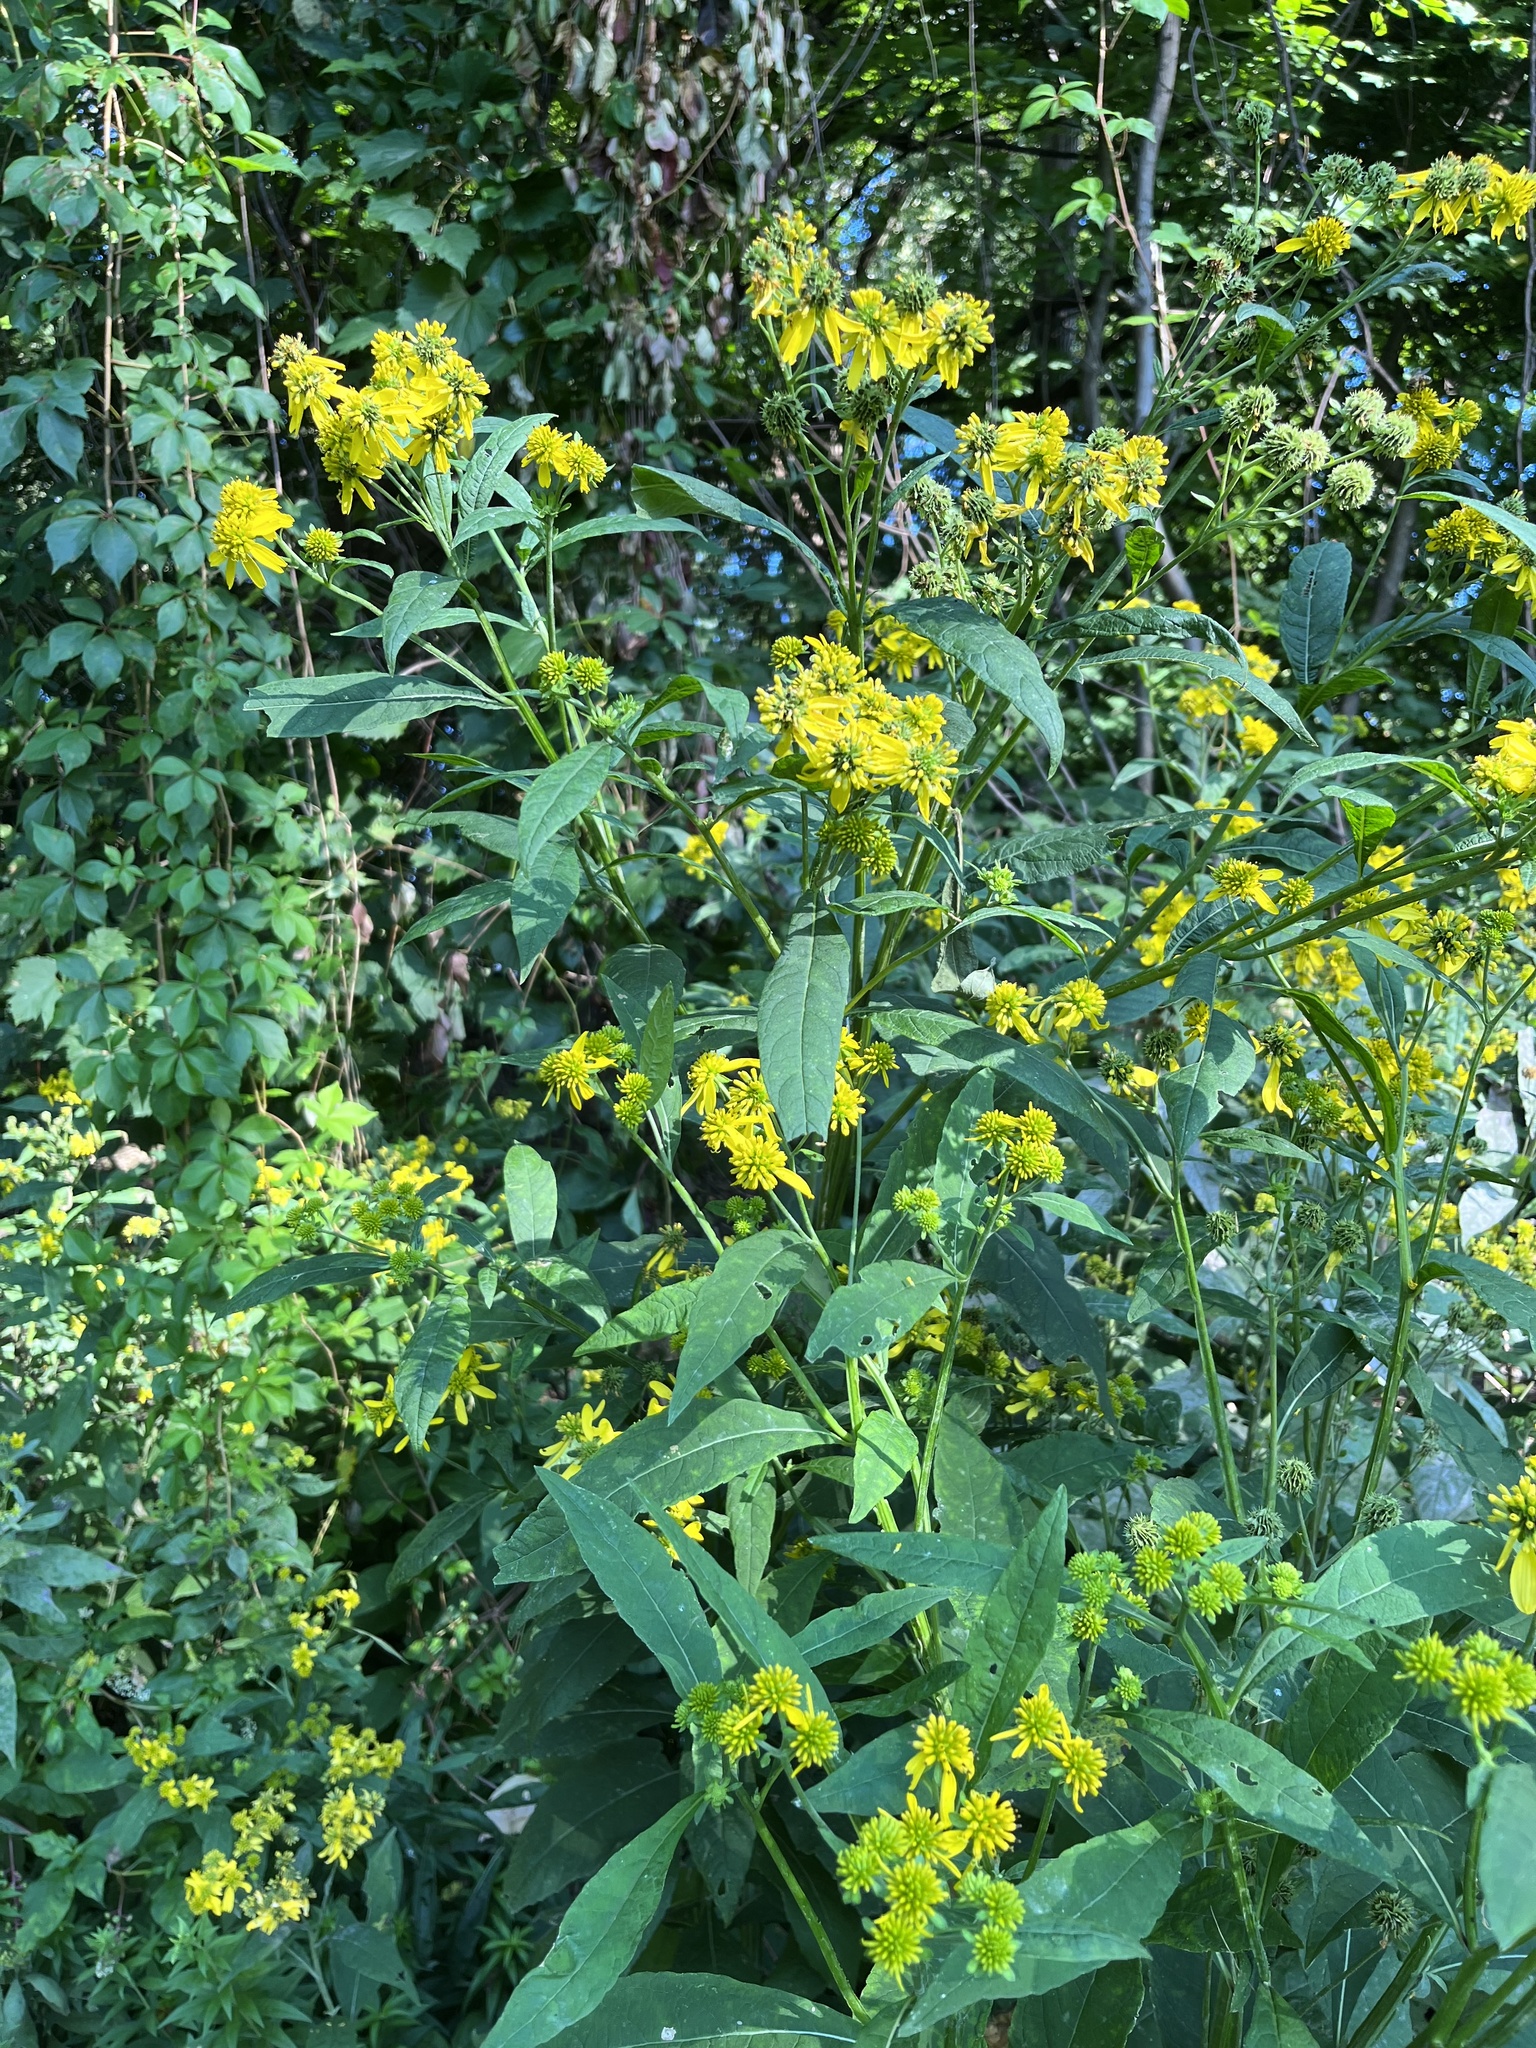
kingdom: Plantae
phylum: Tracheophyta
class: Magnoliopsida
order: Asterales
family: Asteraceae
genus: Verbesina
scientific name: Verbesina alternifolia
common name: Wingstem
